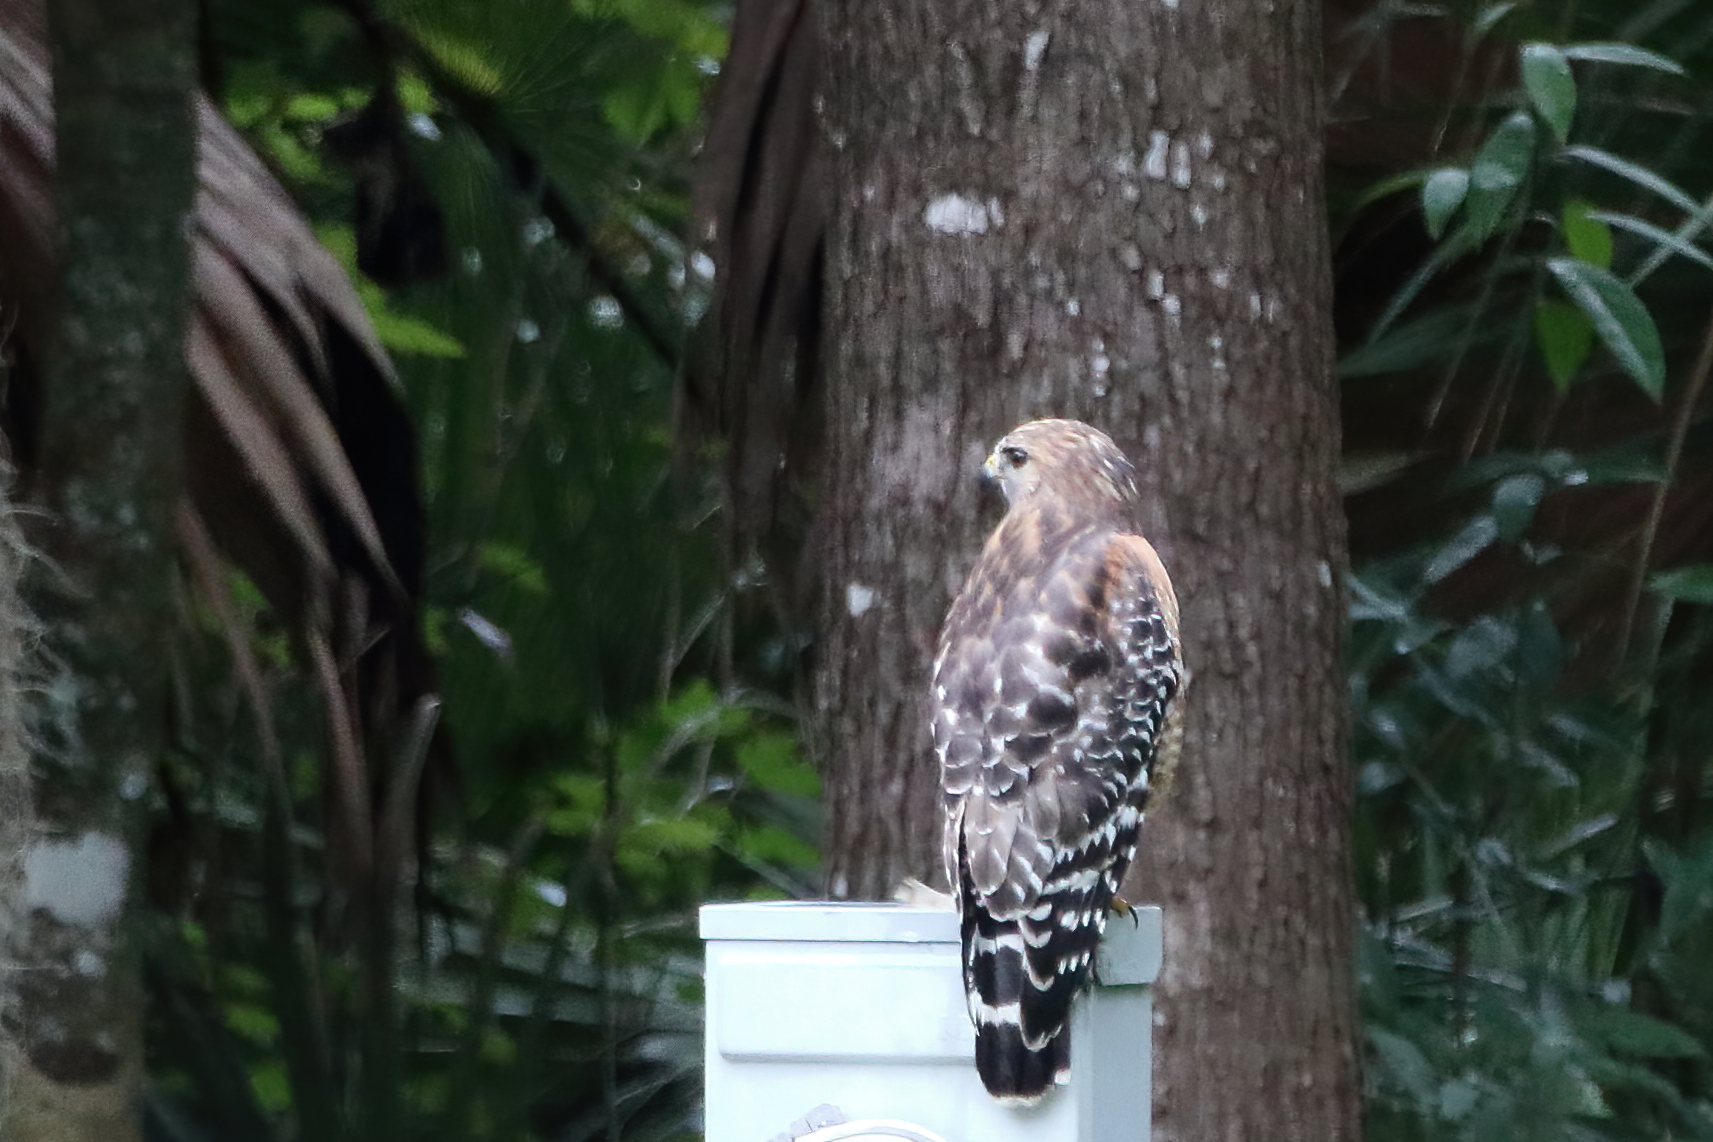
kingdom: Animalia
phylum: Chordata
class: Aves
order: Accipitriformes
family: Accipitridae
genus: Buteo
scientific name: Buteo lineatus
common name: Red-shouldered hawk
